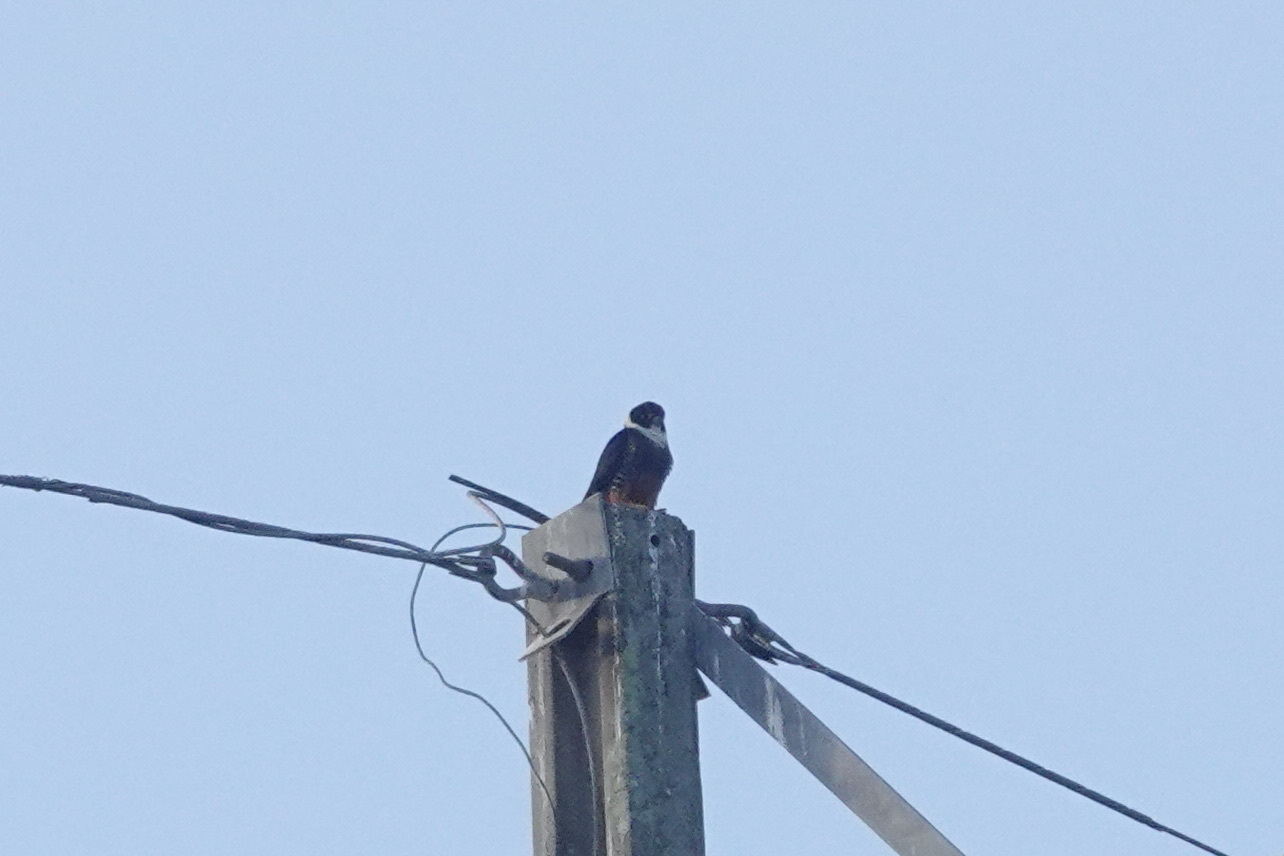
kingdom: Animalia
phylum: Chordata
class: Aves
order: Falconiformes
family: Falconidae
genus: Falco
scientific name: Falco rufigularis
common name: Bat falcon
